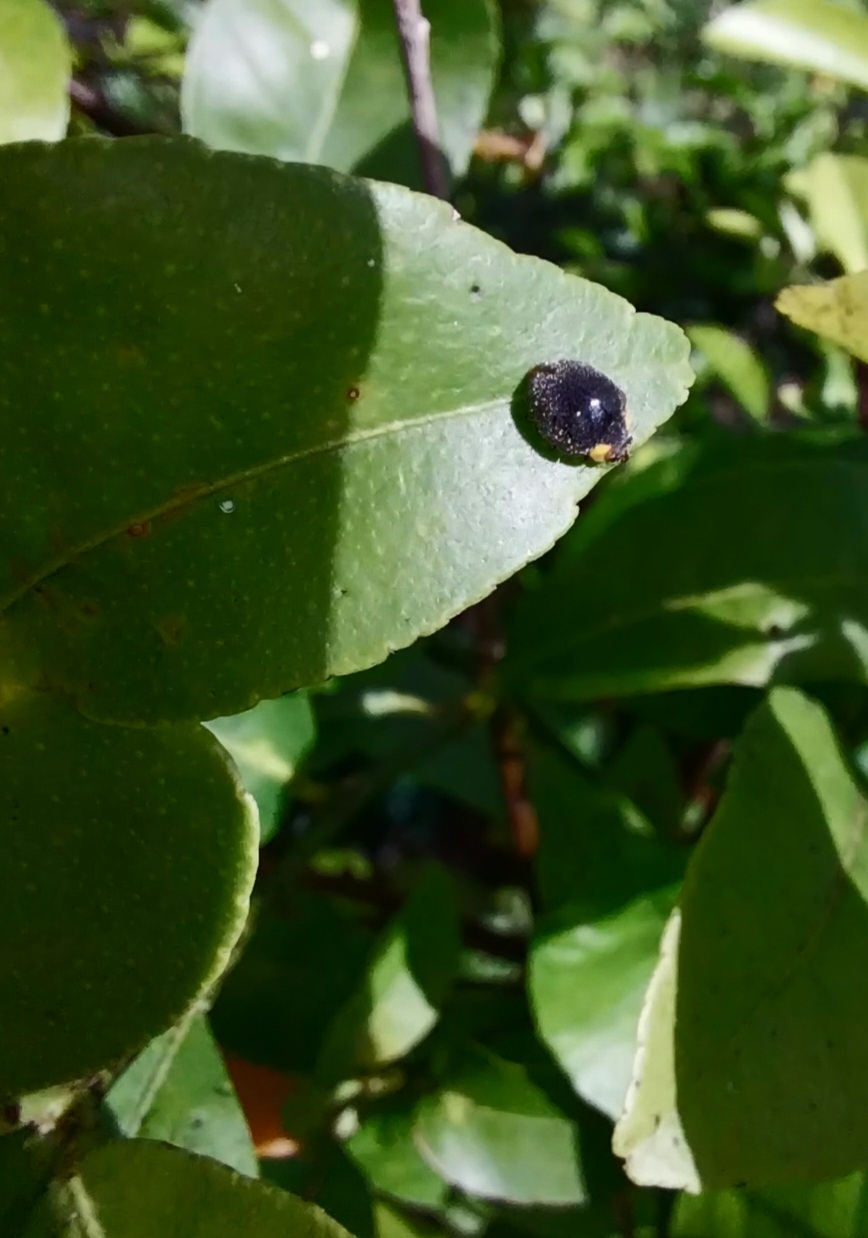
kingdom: Animalia
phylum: Arthropoda
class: Insecta
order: Coleoptera
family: Coccinellidae
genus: Scymnodes
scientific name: Scymnodes lividigaster
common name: Yellowshouldered lady beetle
